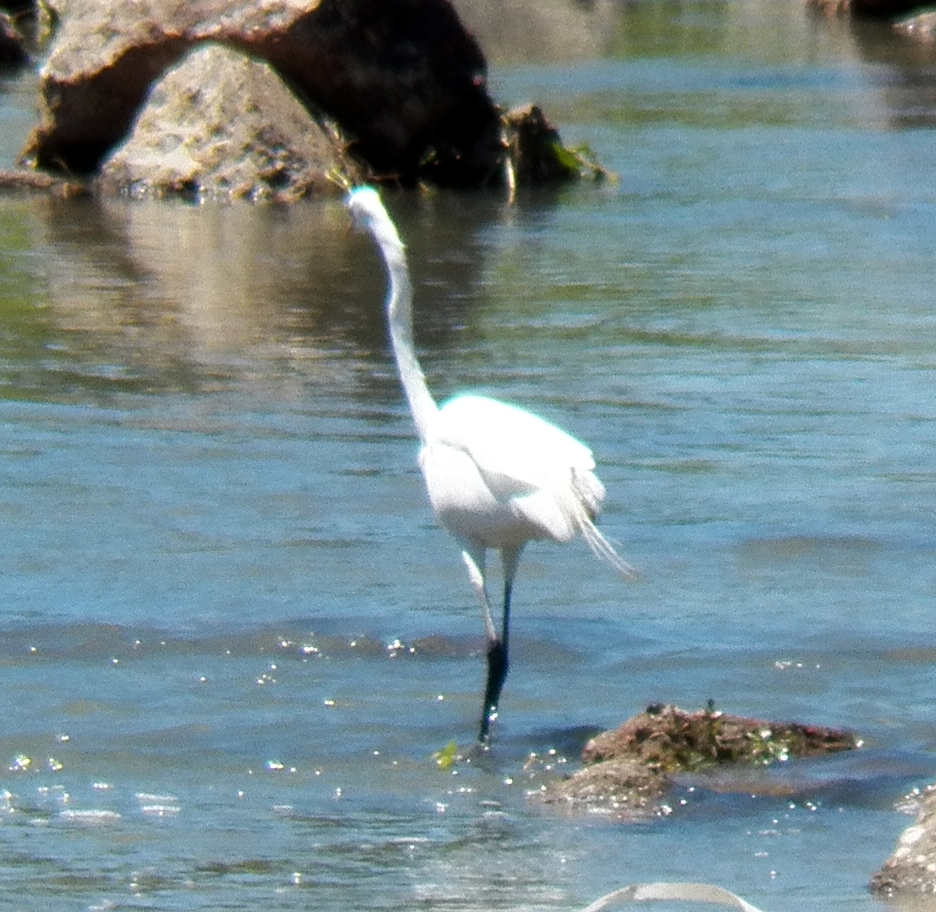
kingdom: Animalia
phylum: Chordata
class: Aves
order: Pelecaniformes
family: Ardeidae
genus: Ardea
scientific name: Ardea alba
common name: Great egret
